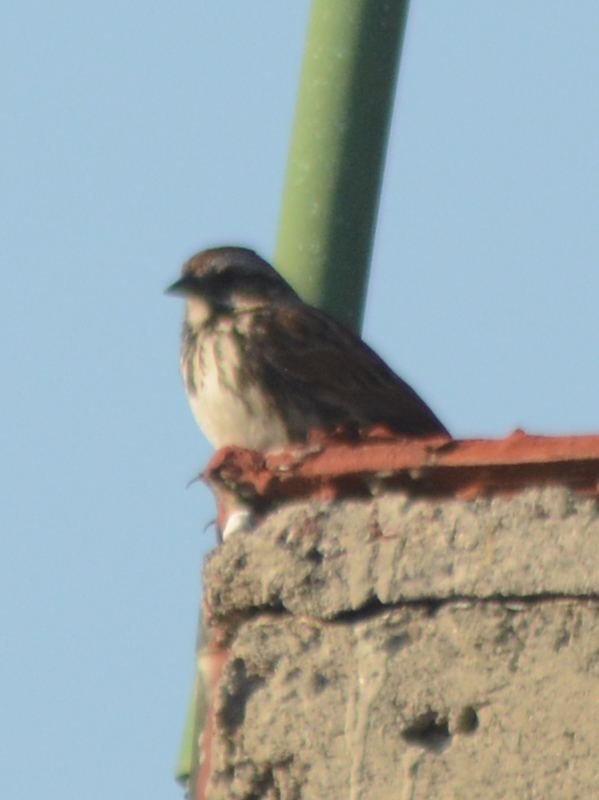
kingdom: Animalia
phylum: Chordata
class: Aves
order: Passeriformes
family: Passerellidae
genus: Melospiza
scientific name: Melospiza melodia
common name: Song sparrow
